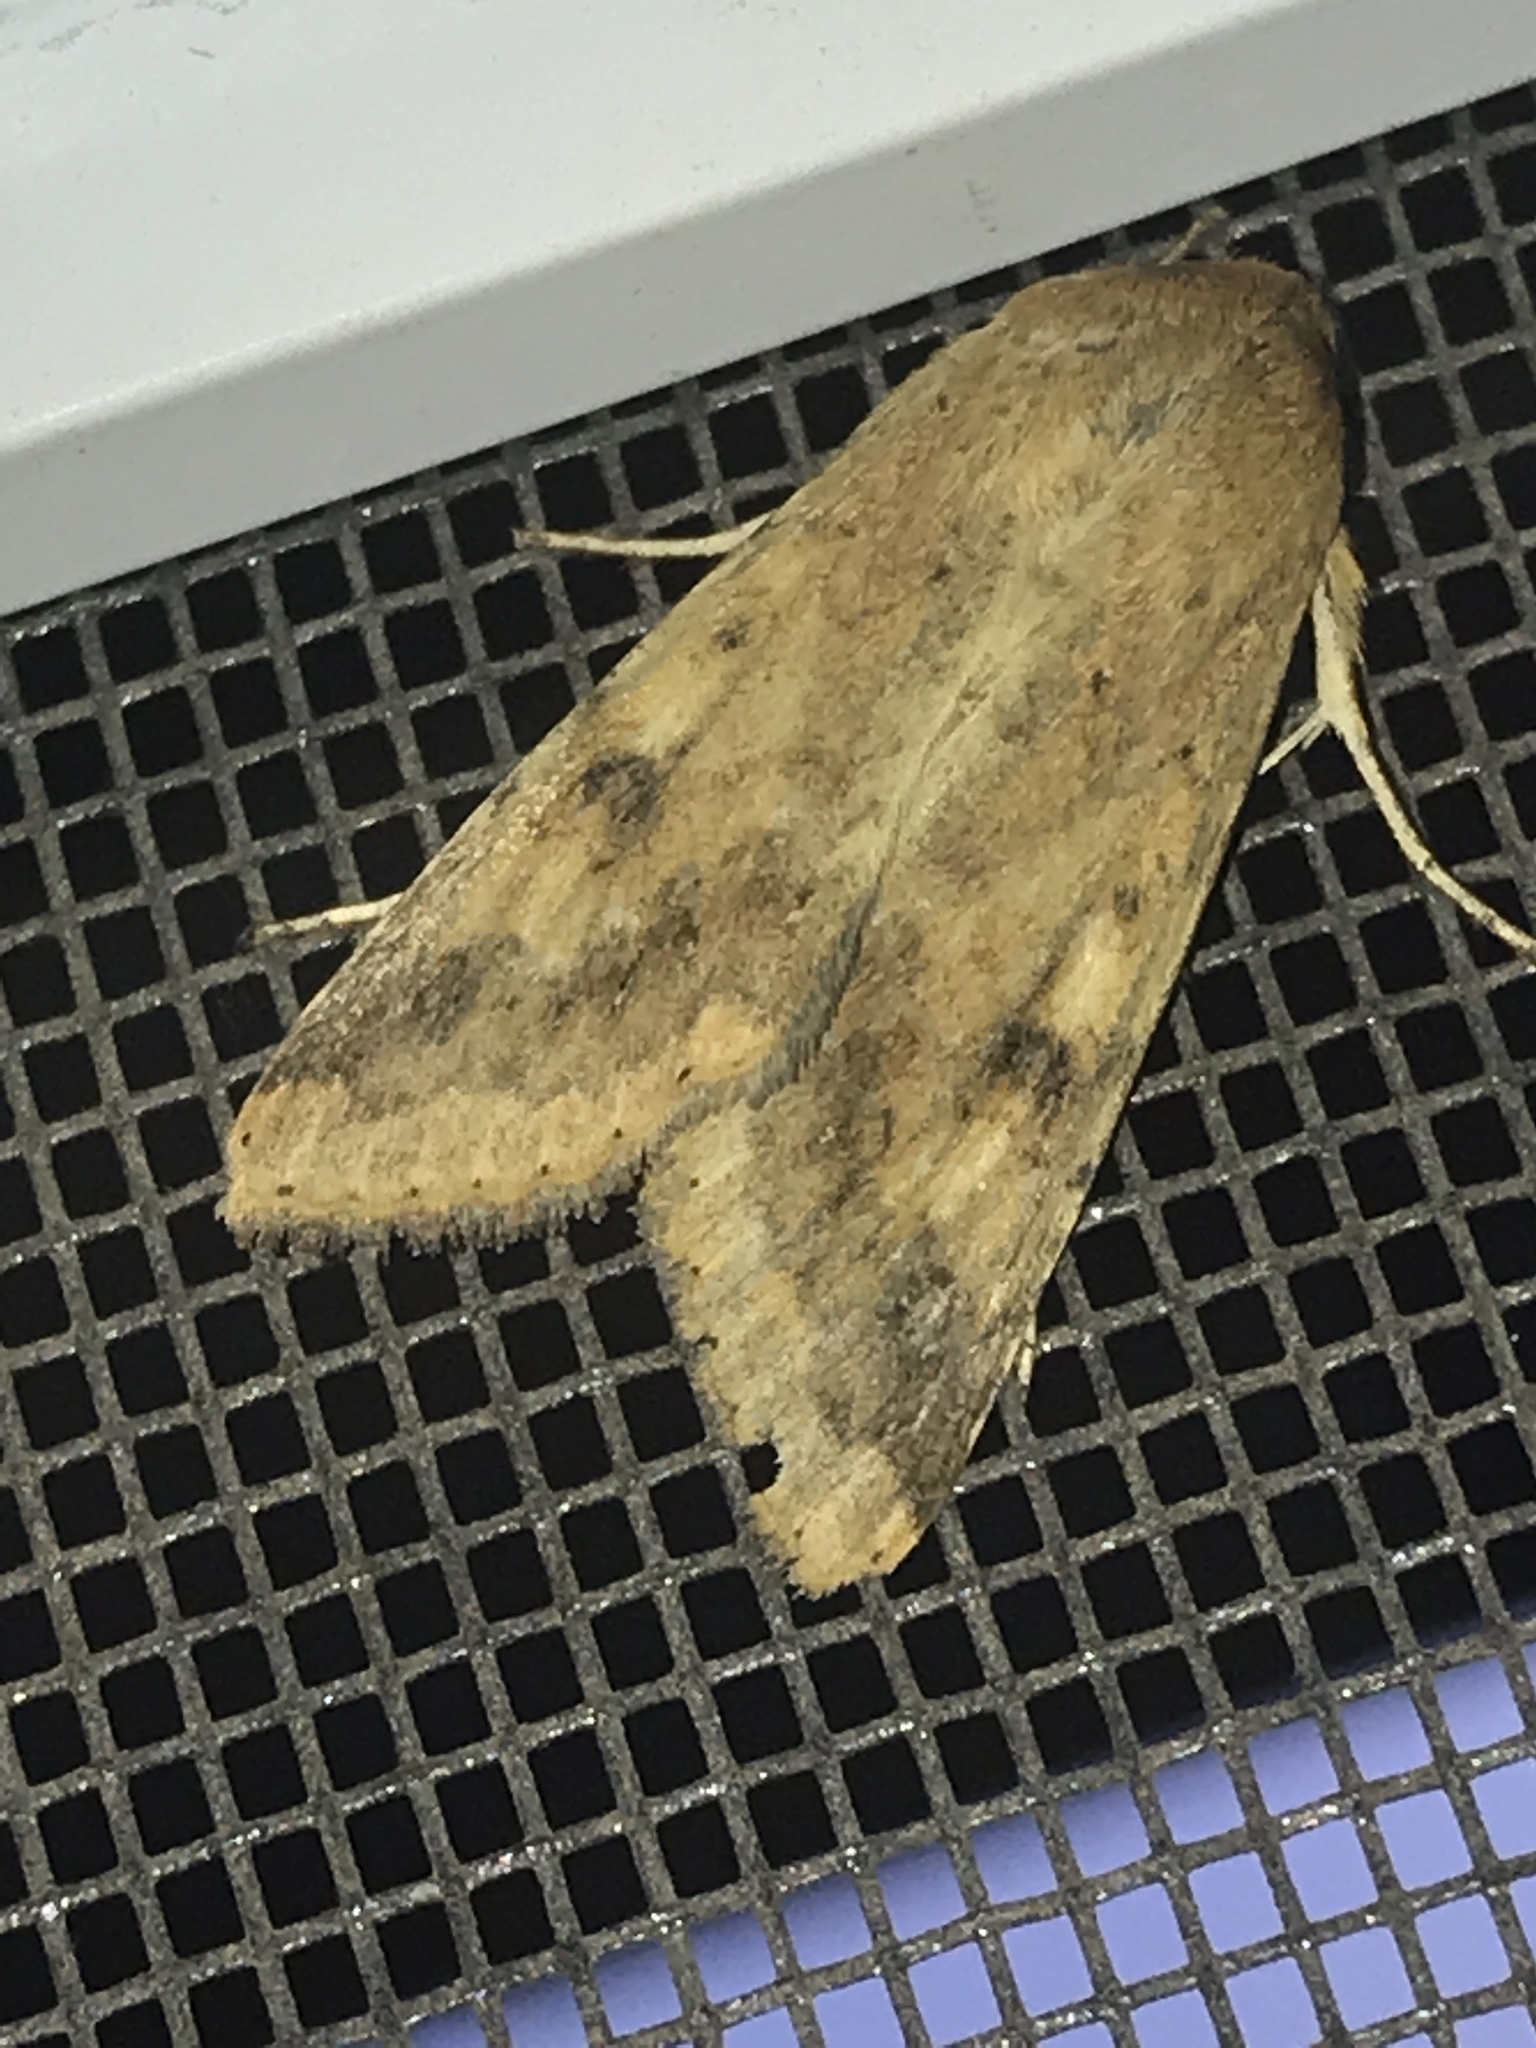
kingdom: Animalia
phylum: Arthropoda
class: Insecta
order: Lepidoptera
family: Noctuidae
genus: Helicoverpa
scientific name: Helicoverpa zea
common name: Bollworm
